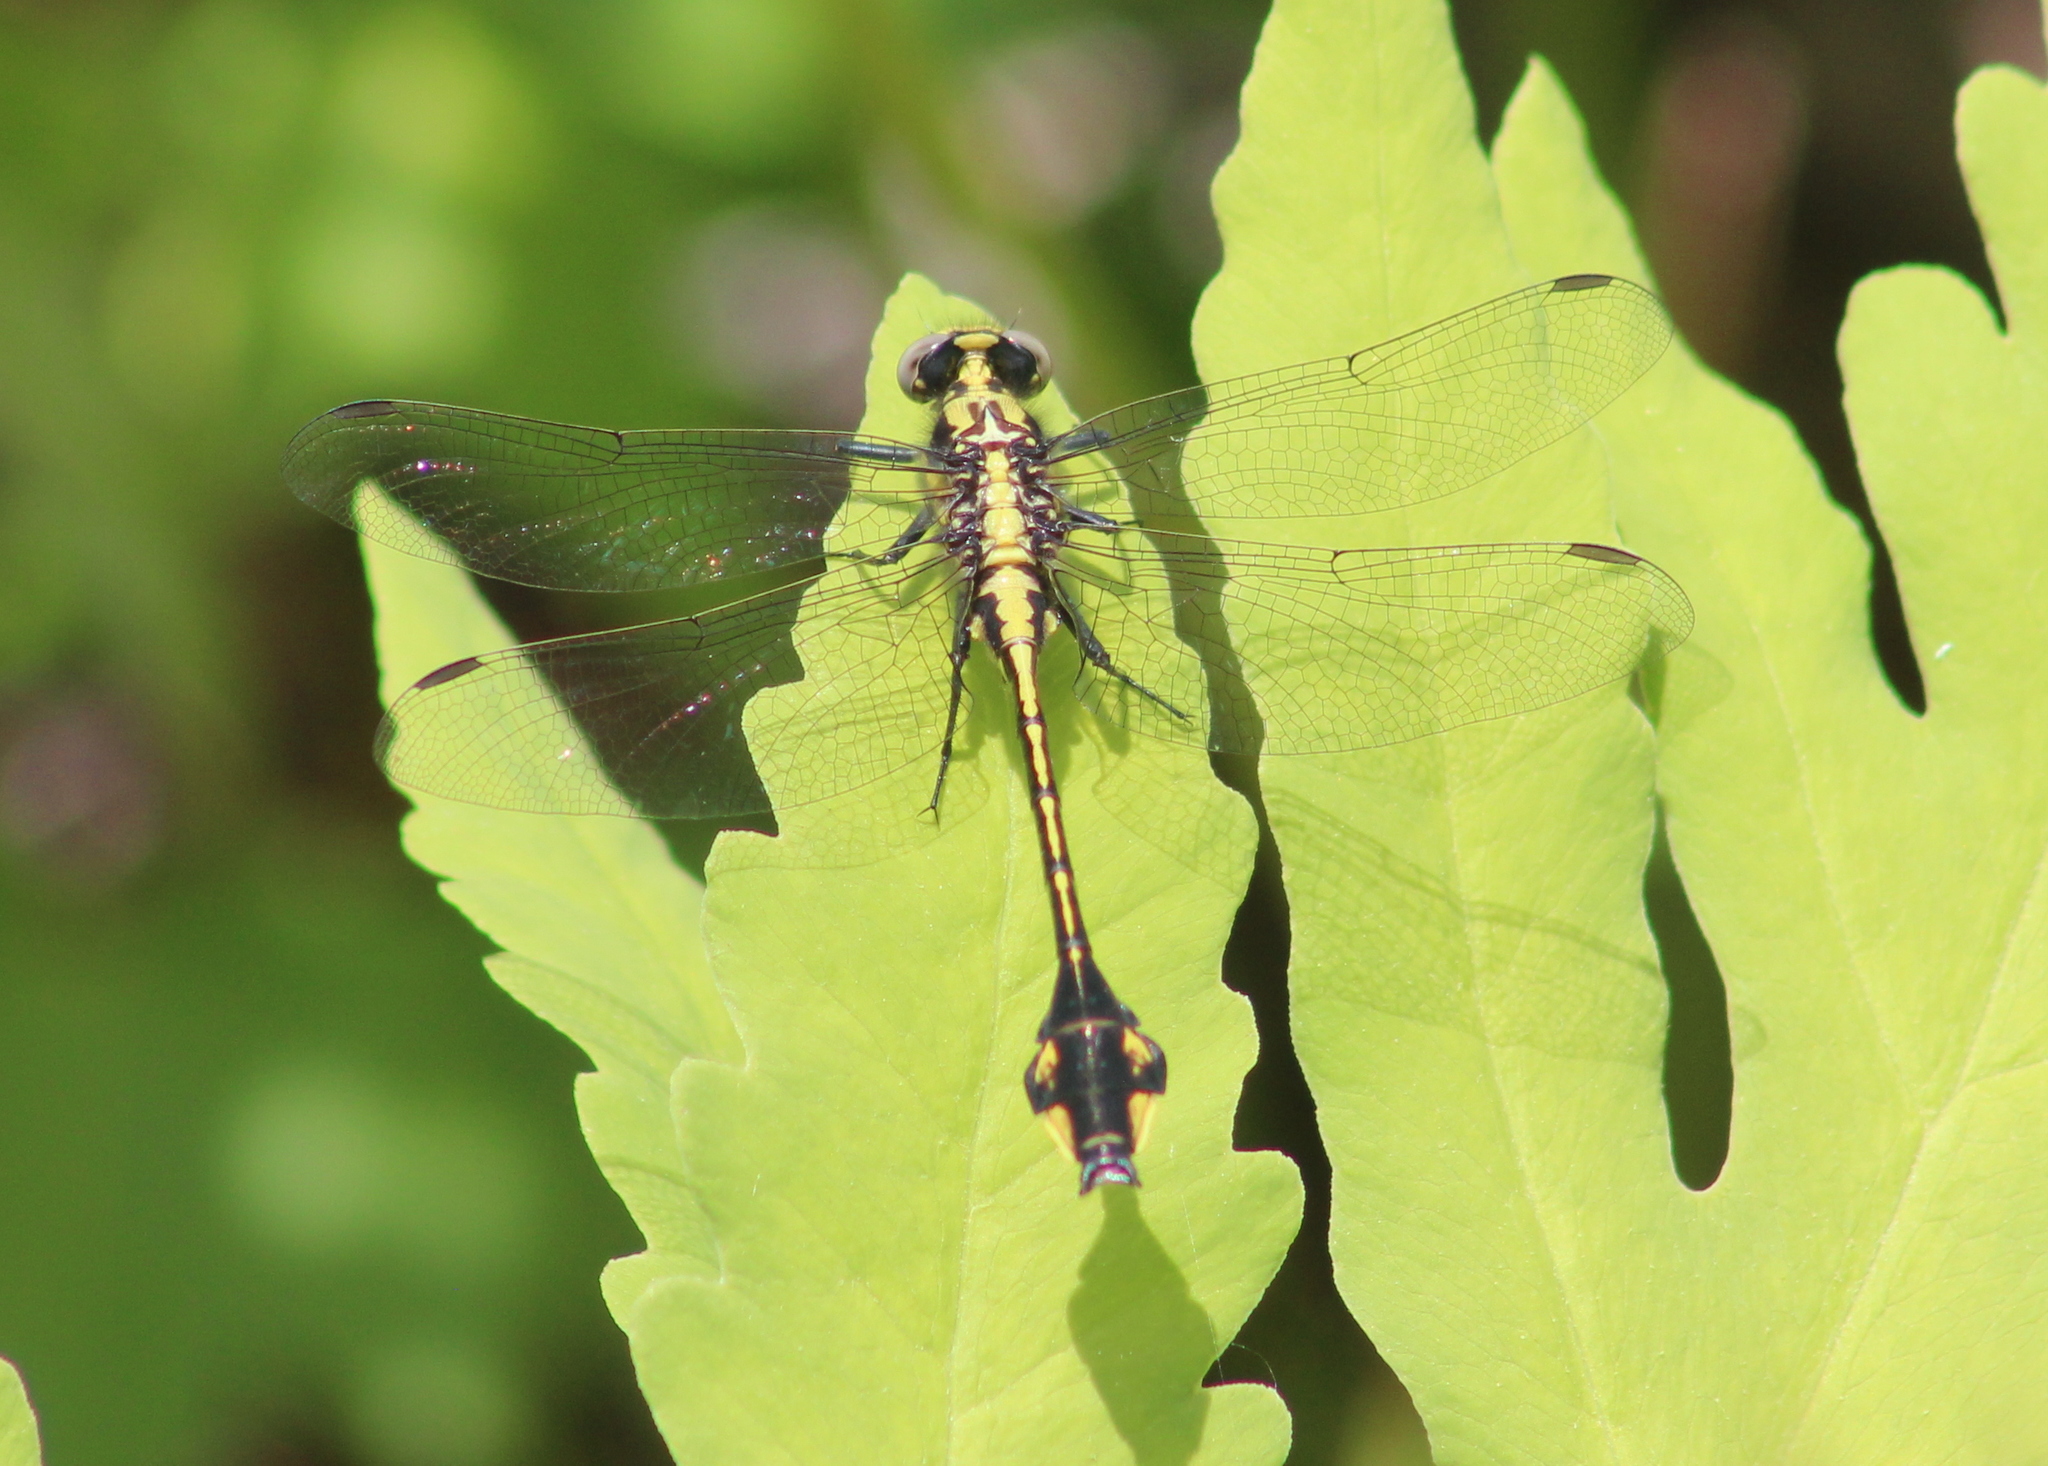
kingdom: Animalia
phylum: Arthropoda
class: Insecta
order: Odonata
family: Gomphidae
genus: Gomphurus
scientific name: Gomphurus ventricosus
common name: Skillet clubtail
